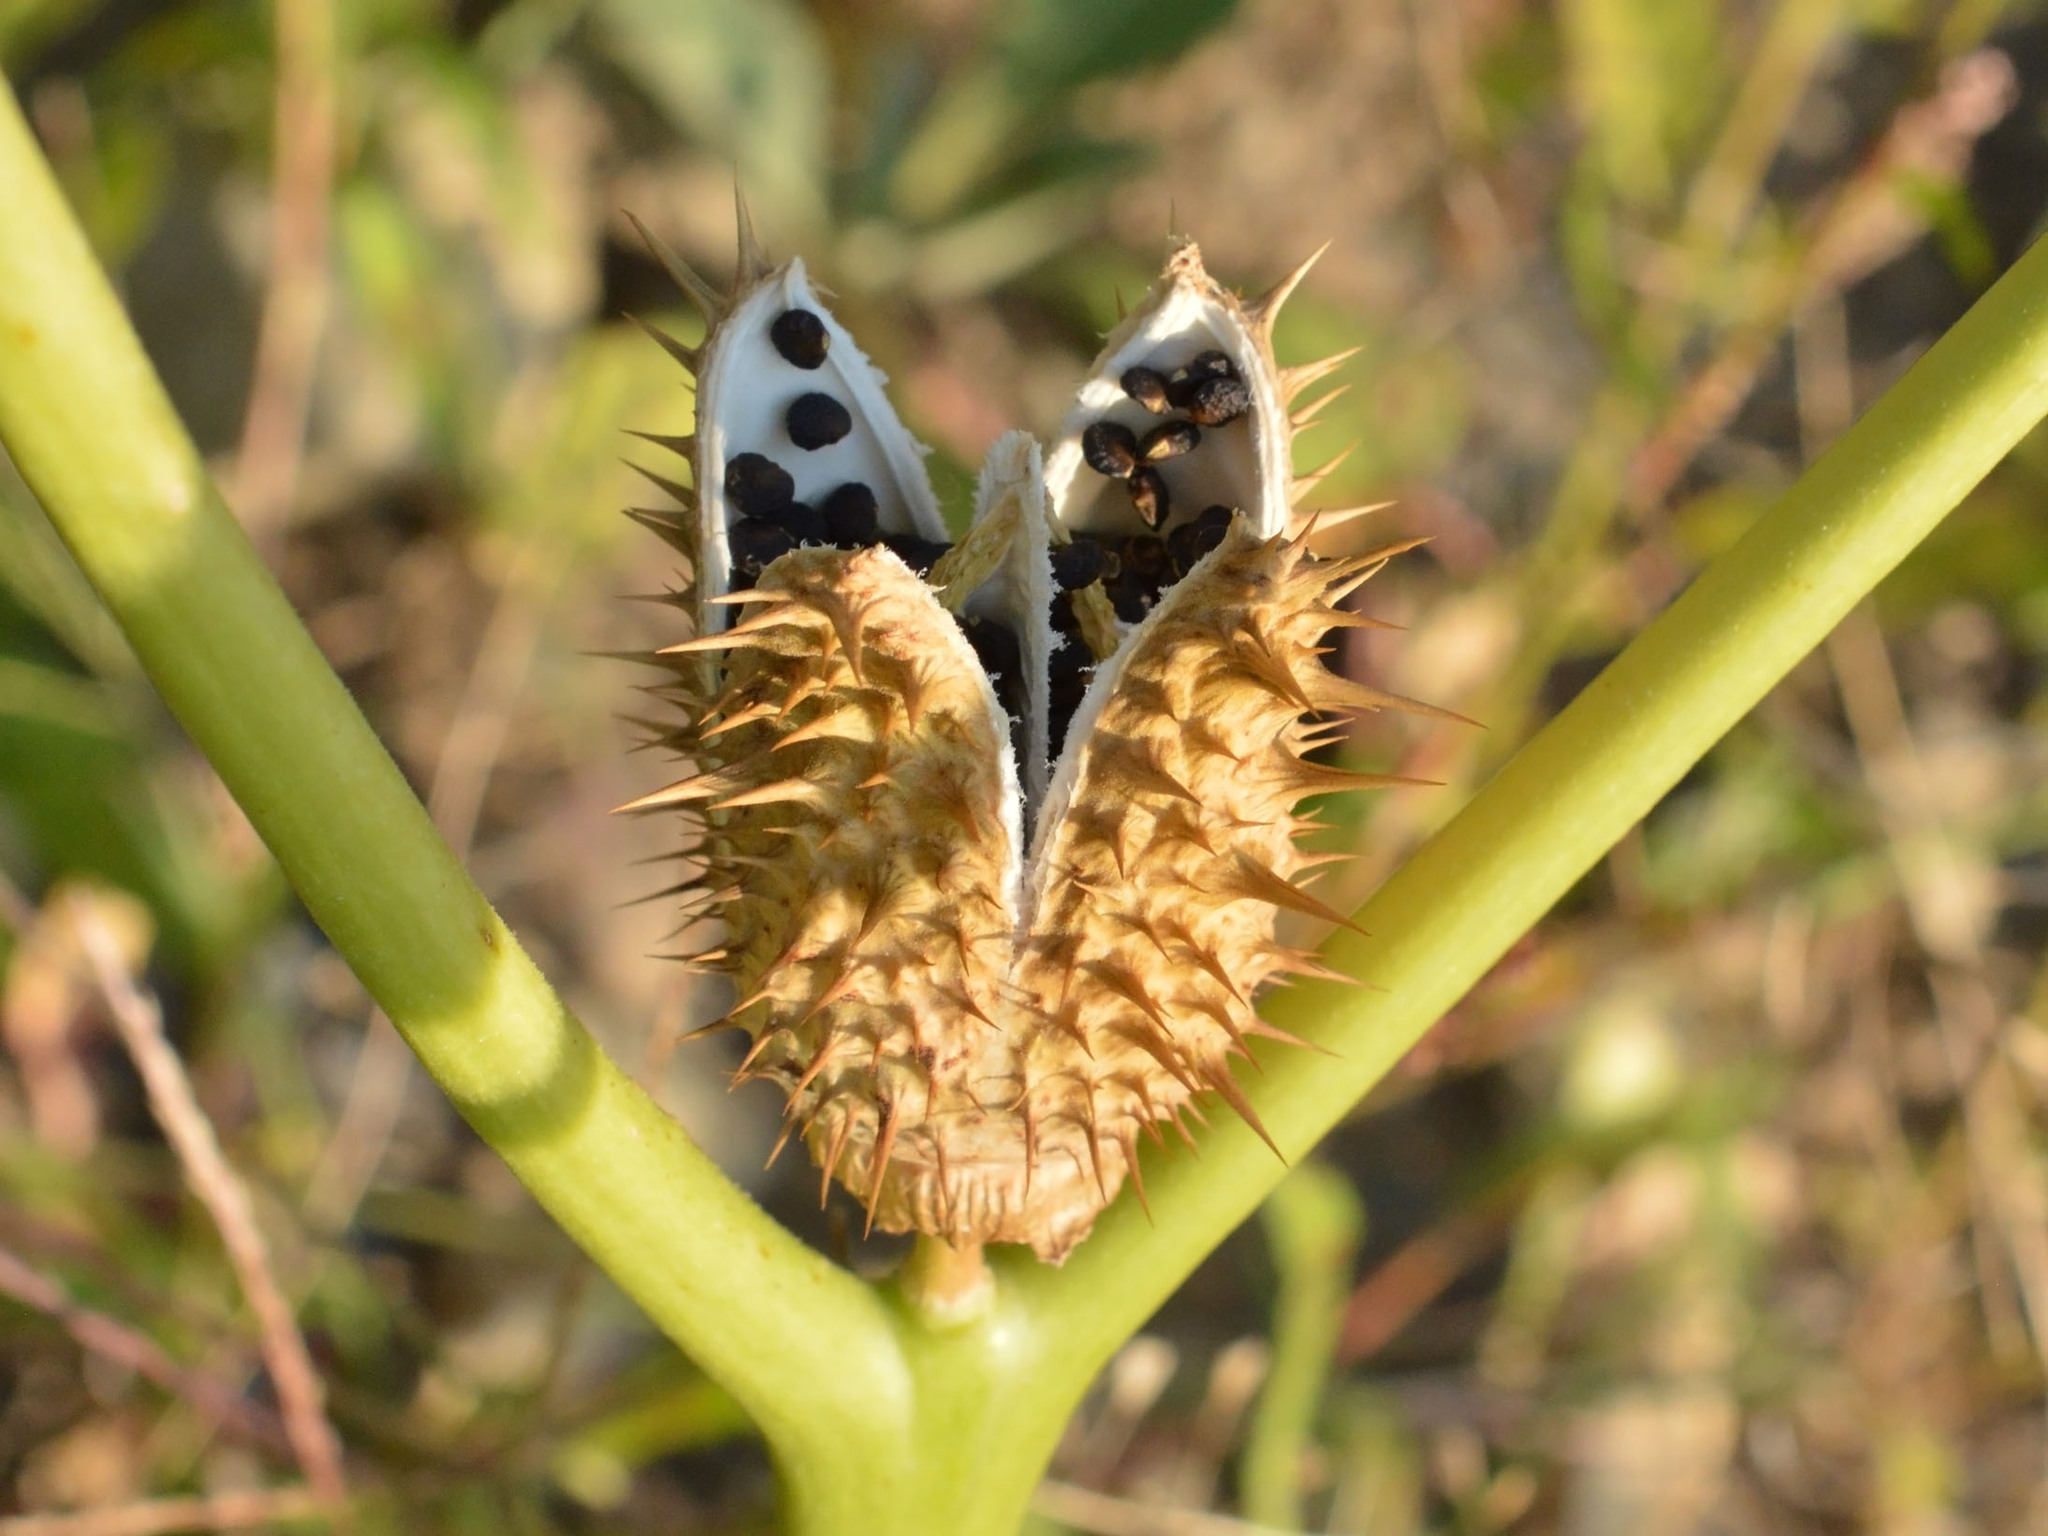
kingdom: Plantae
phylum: Tracheophyta
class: Magnoliopsida
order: Solanales
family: Solanaceae
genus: Datura
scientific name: Datura stramonium
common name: Thorn-apple
